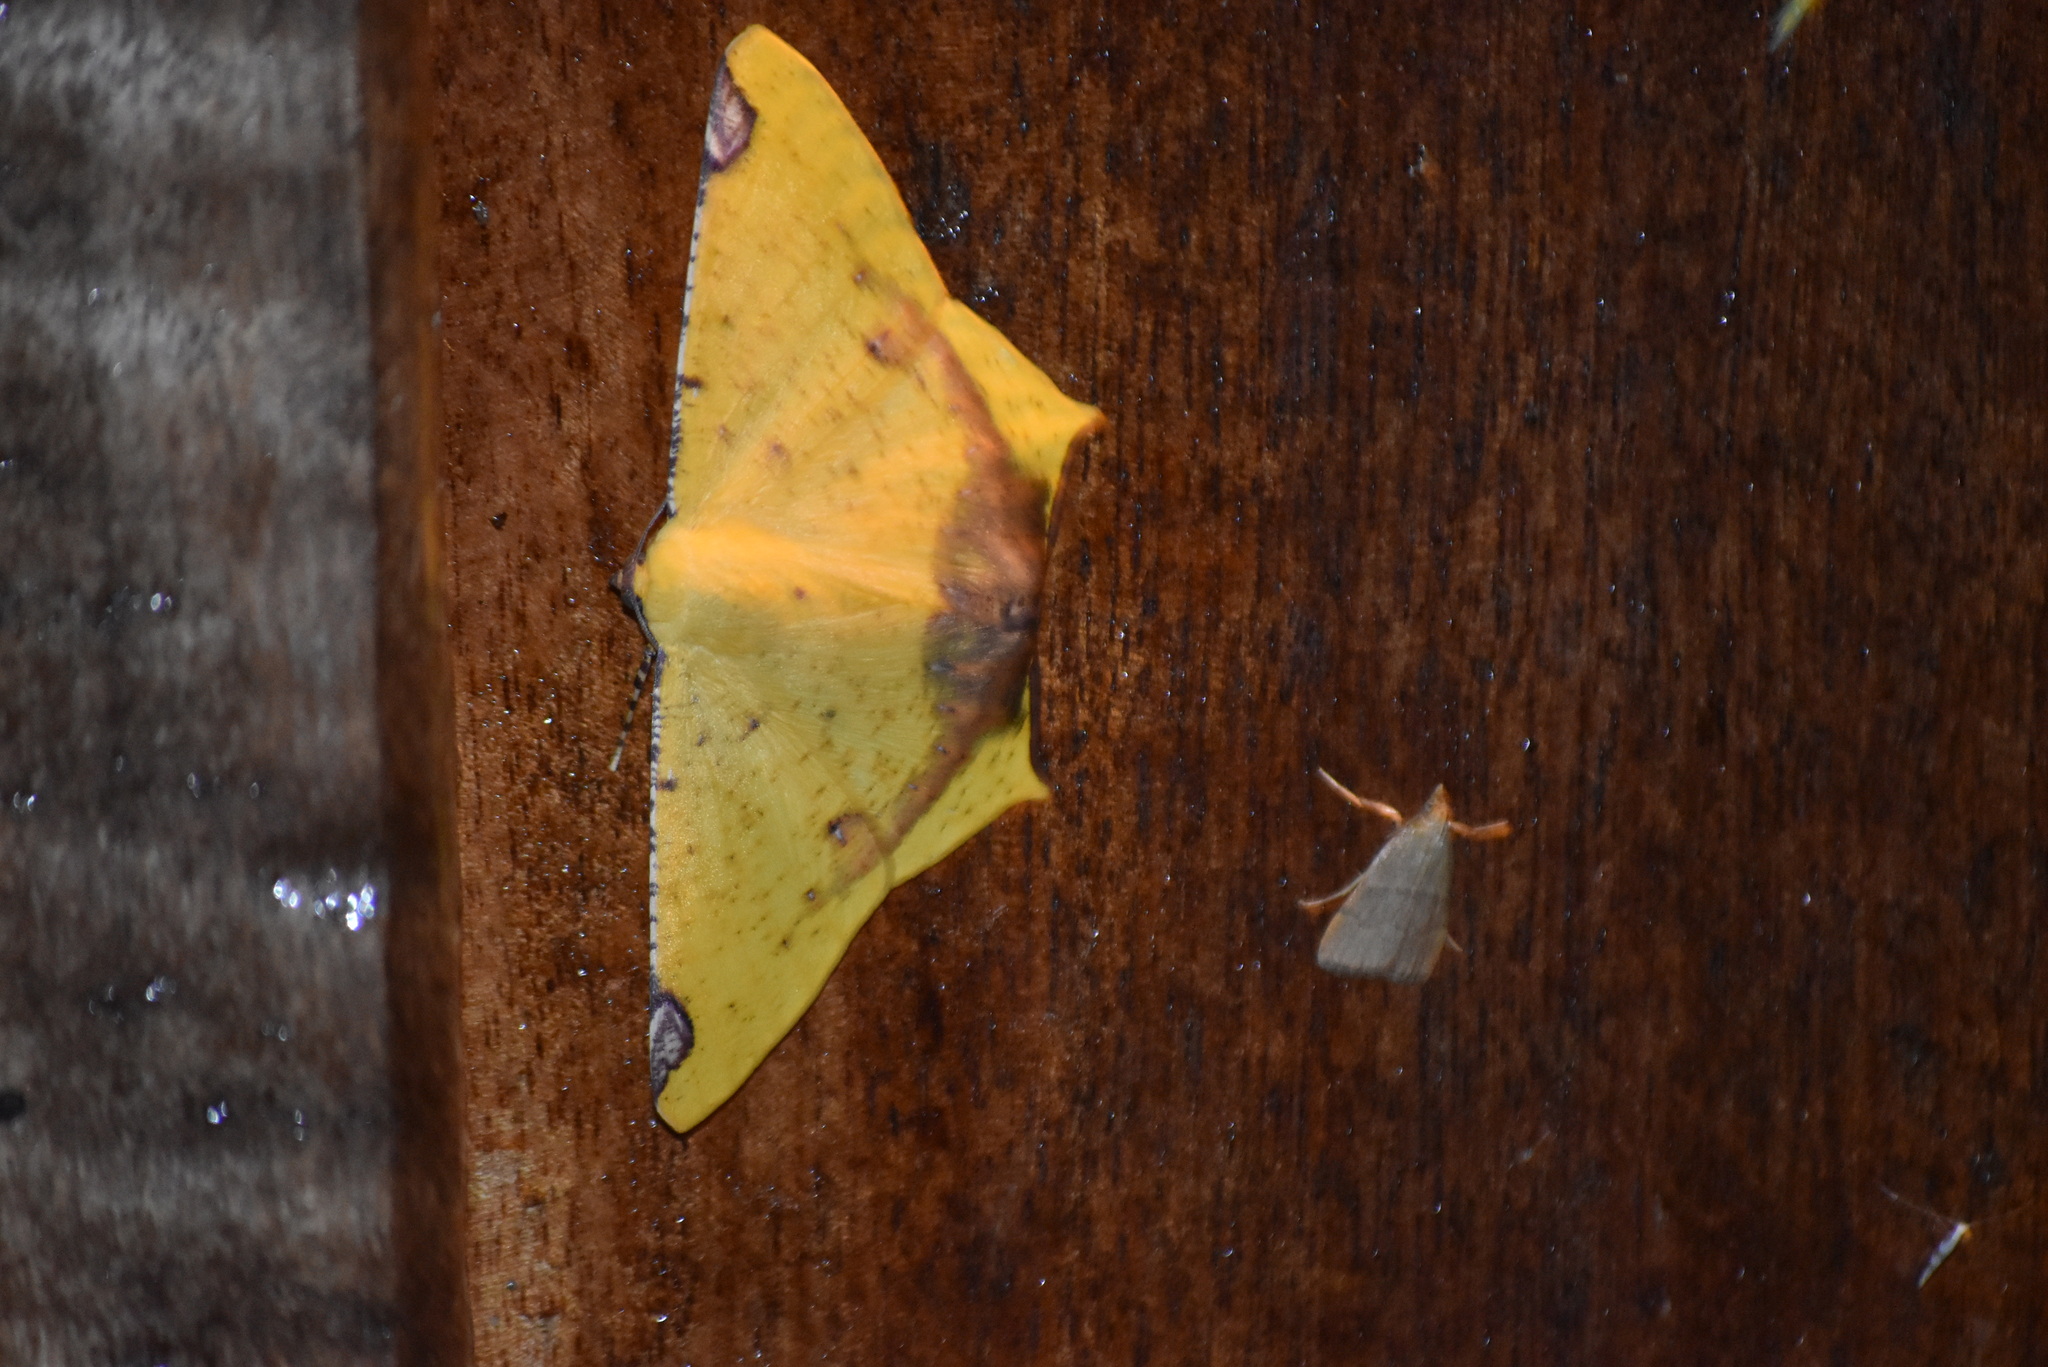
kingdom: Animalia
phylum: Arthropoda
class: Insecta
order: Lepidoptera
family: Geometridae
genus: Nepheloleuca
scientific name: Nepheloleuca politia
